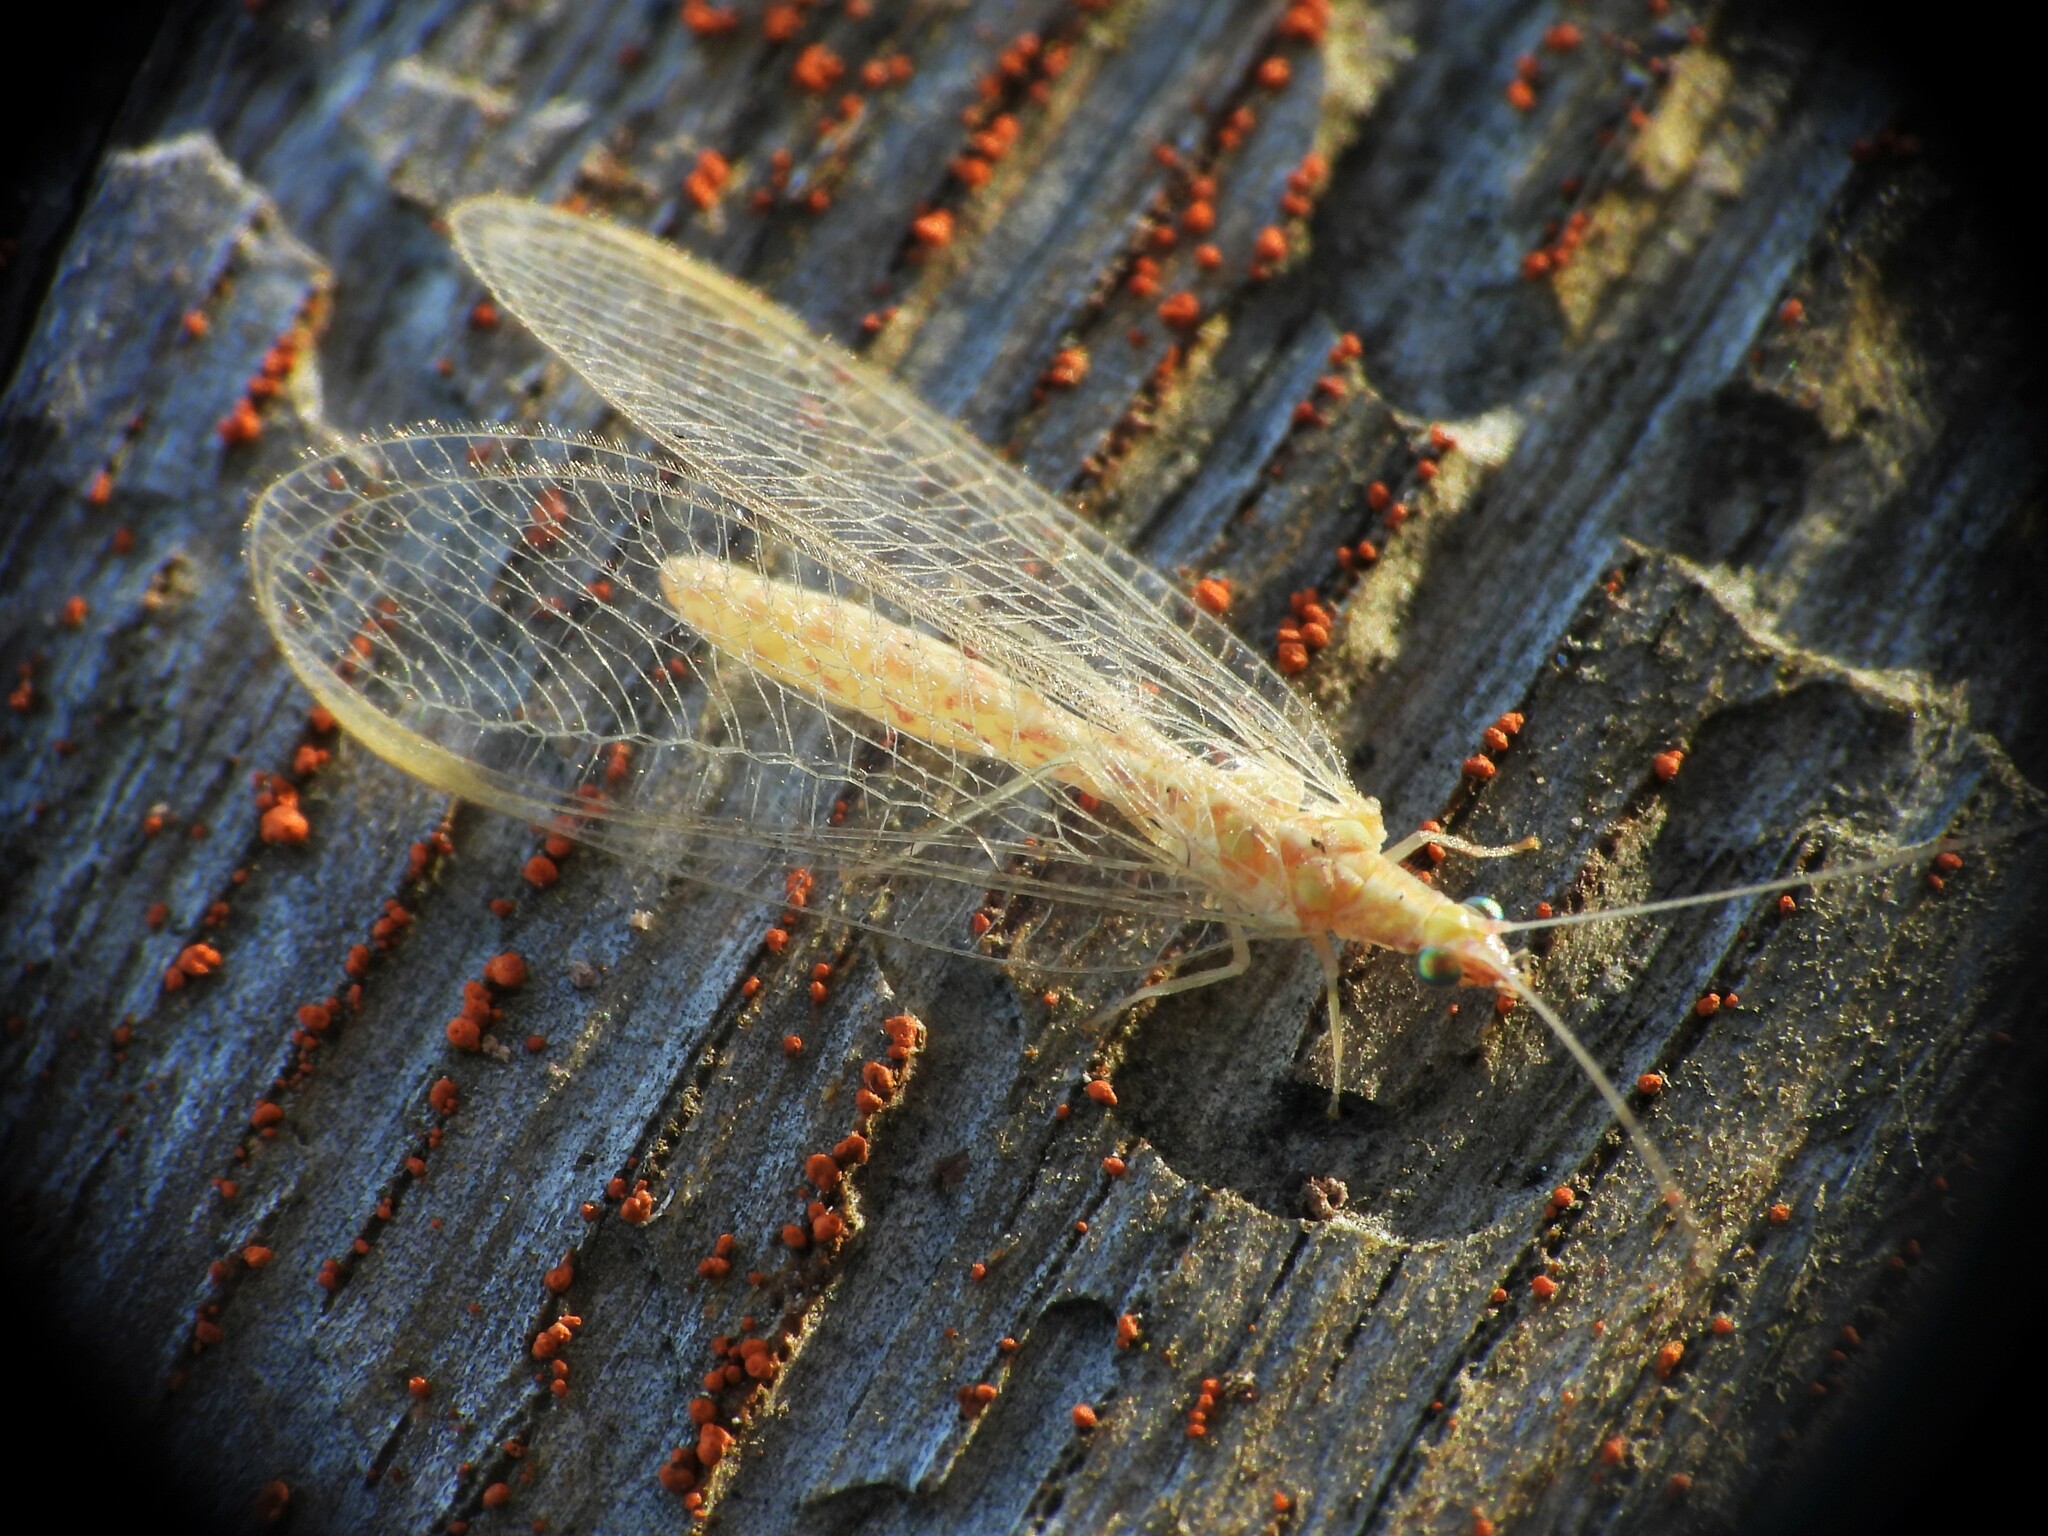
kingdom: Animalia
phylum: Arthropoda
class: Insecta
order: Neuroptera
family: Chrysopidae
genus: Chrysoperla
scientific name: Chrysoperla
